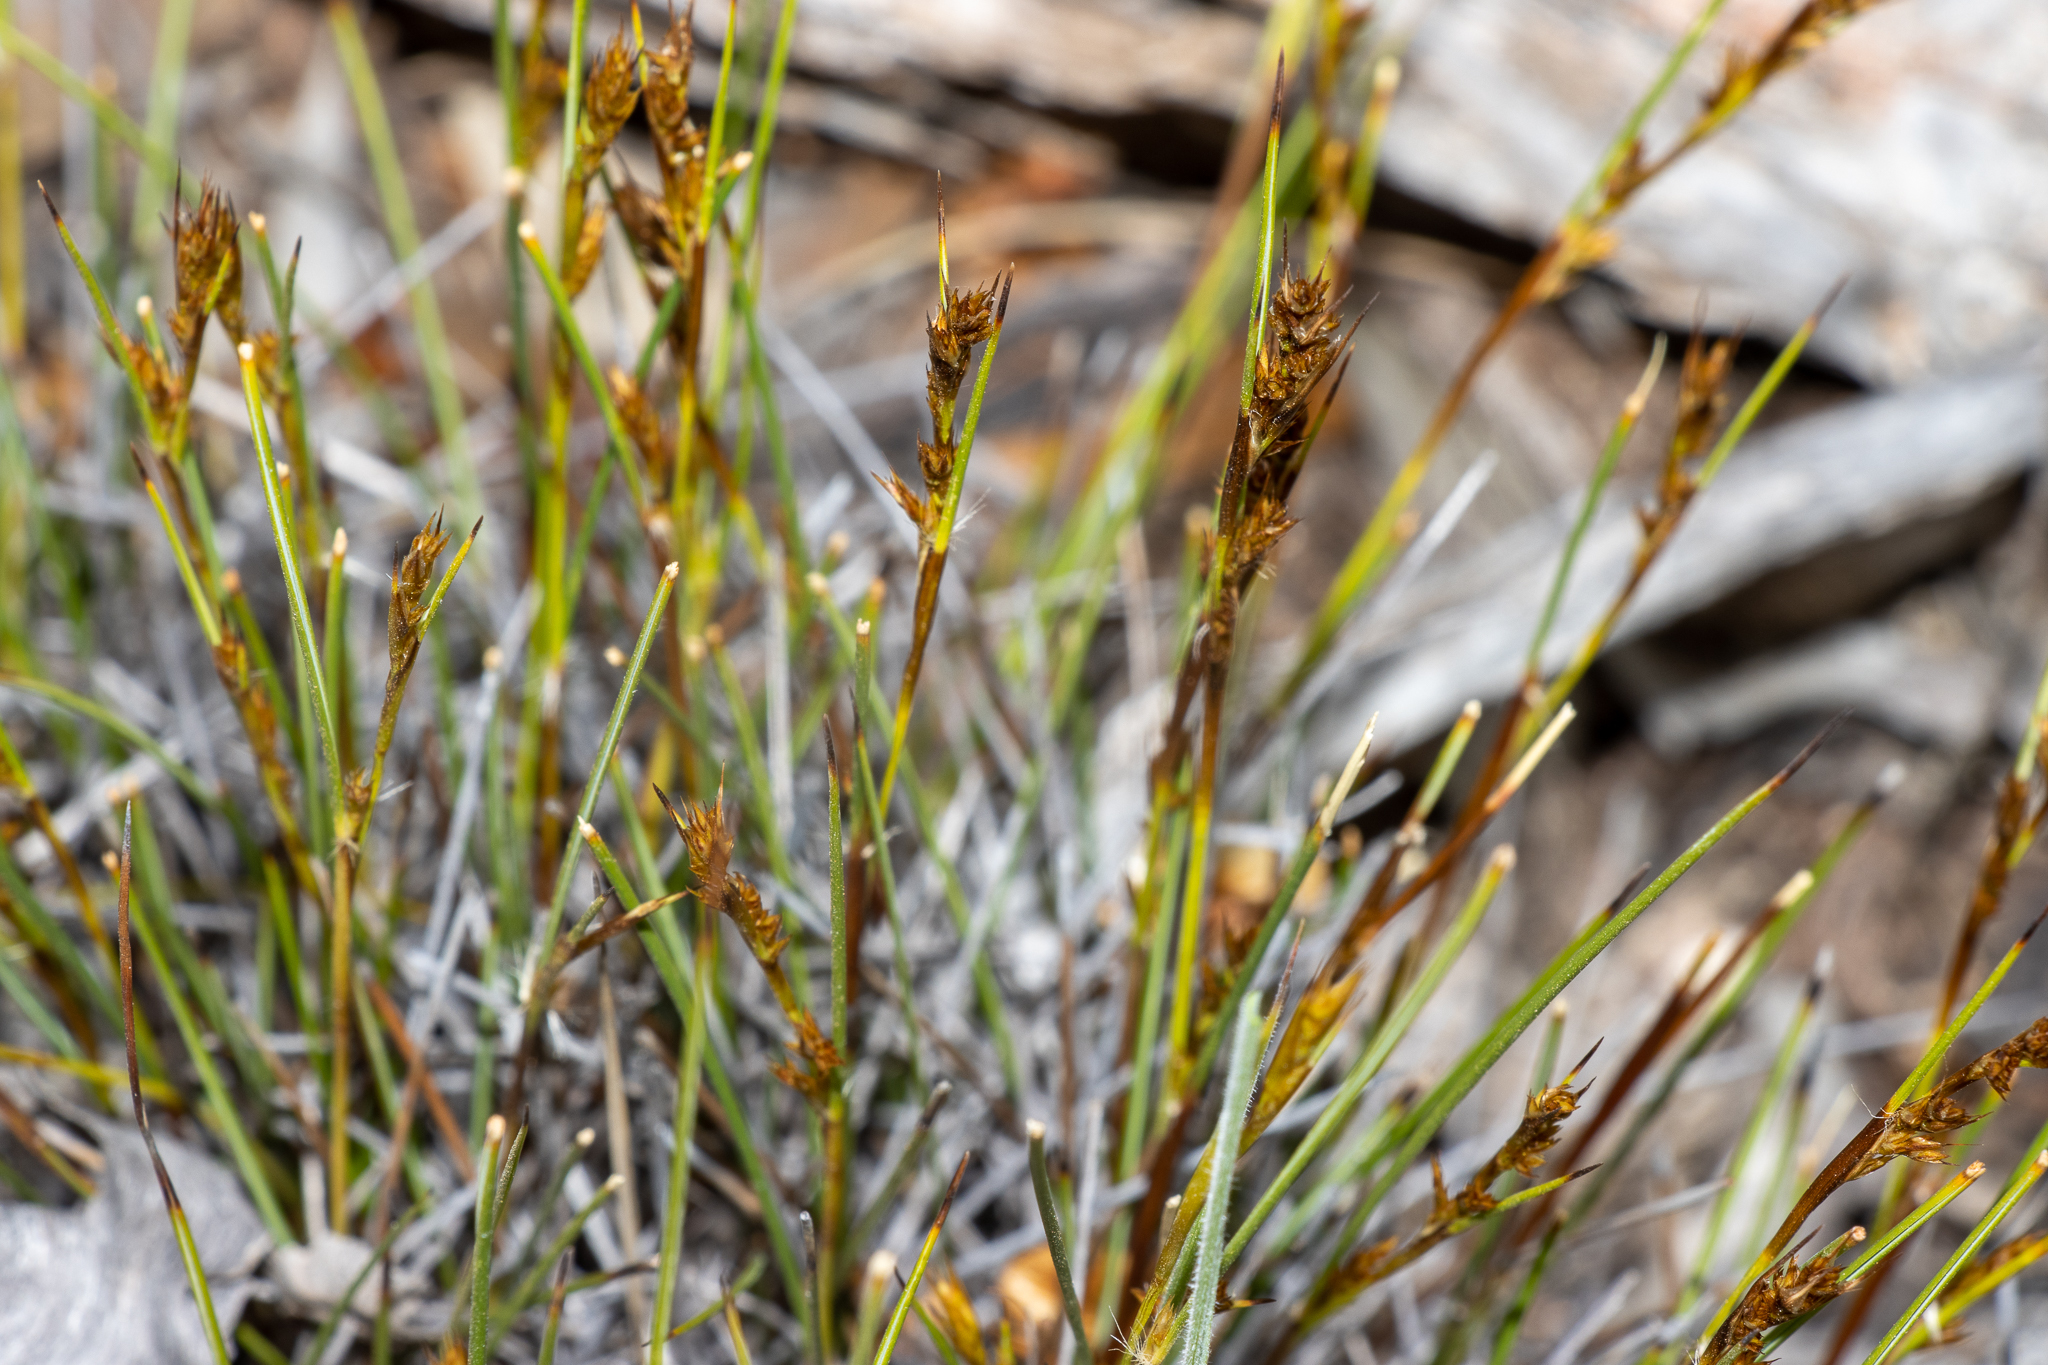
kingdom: Plantae
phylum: Tracheophyta
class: Liliopsida
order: Poales
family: Cyperaceae
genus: Gahnia
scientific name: Gahnia lanigera
